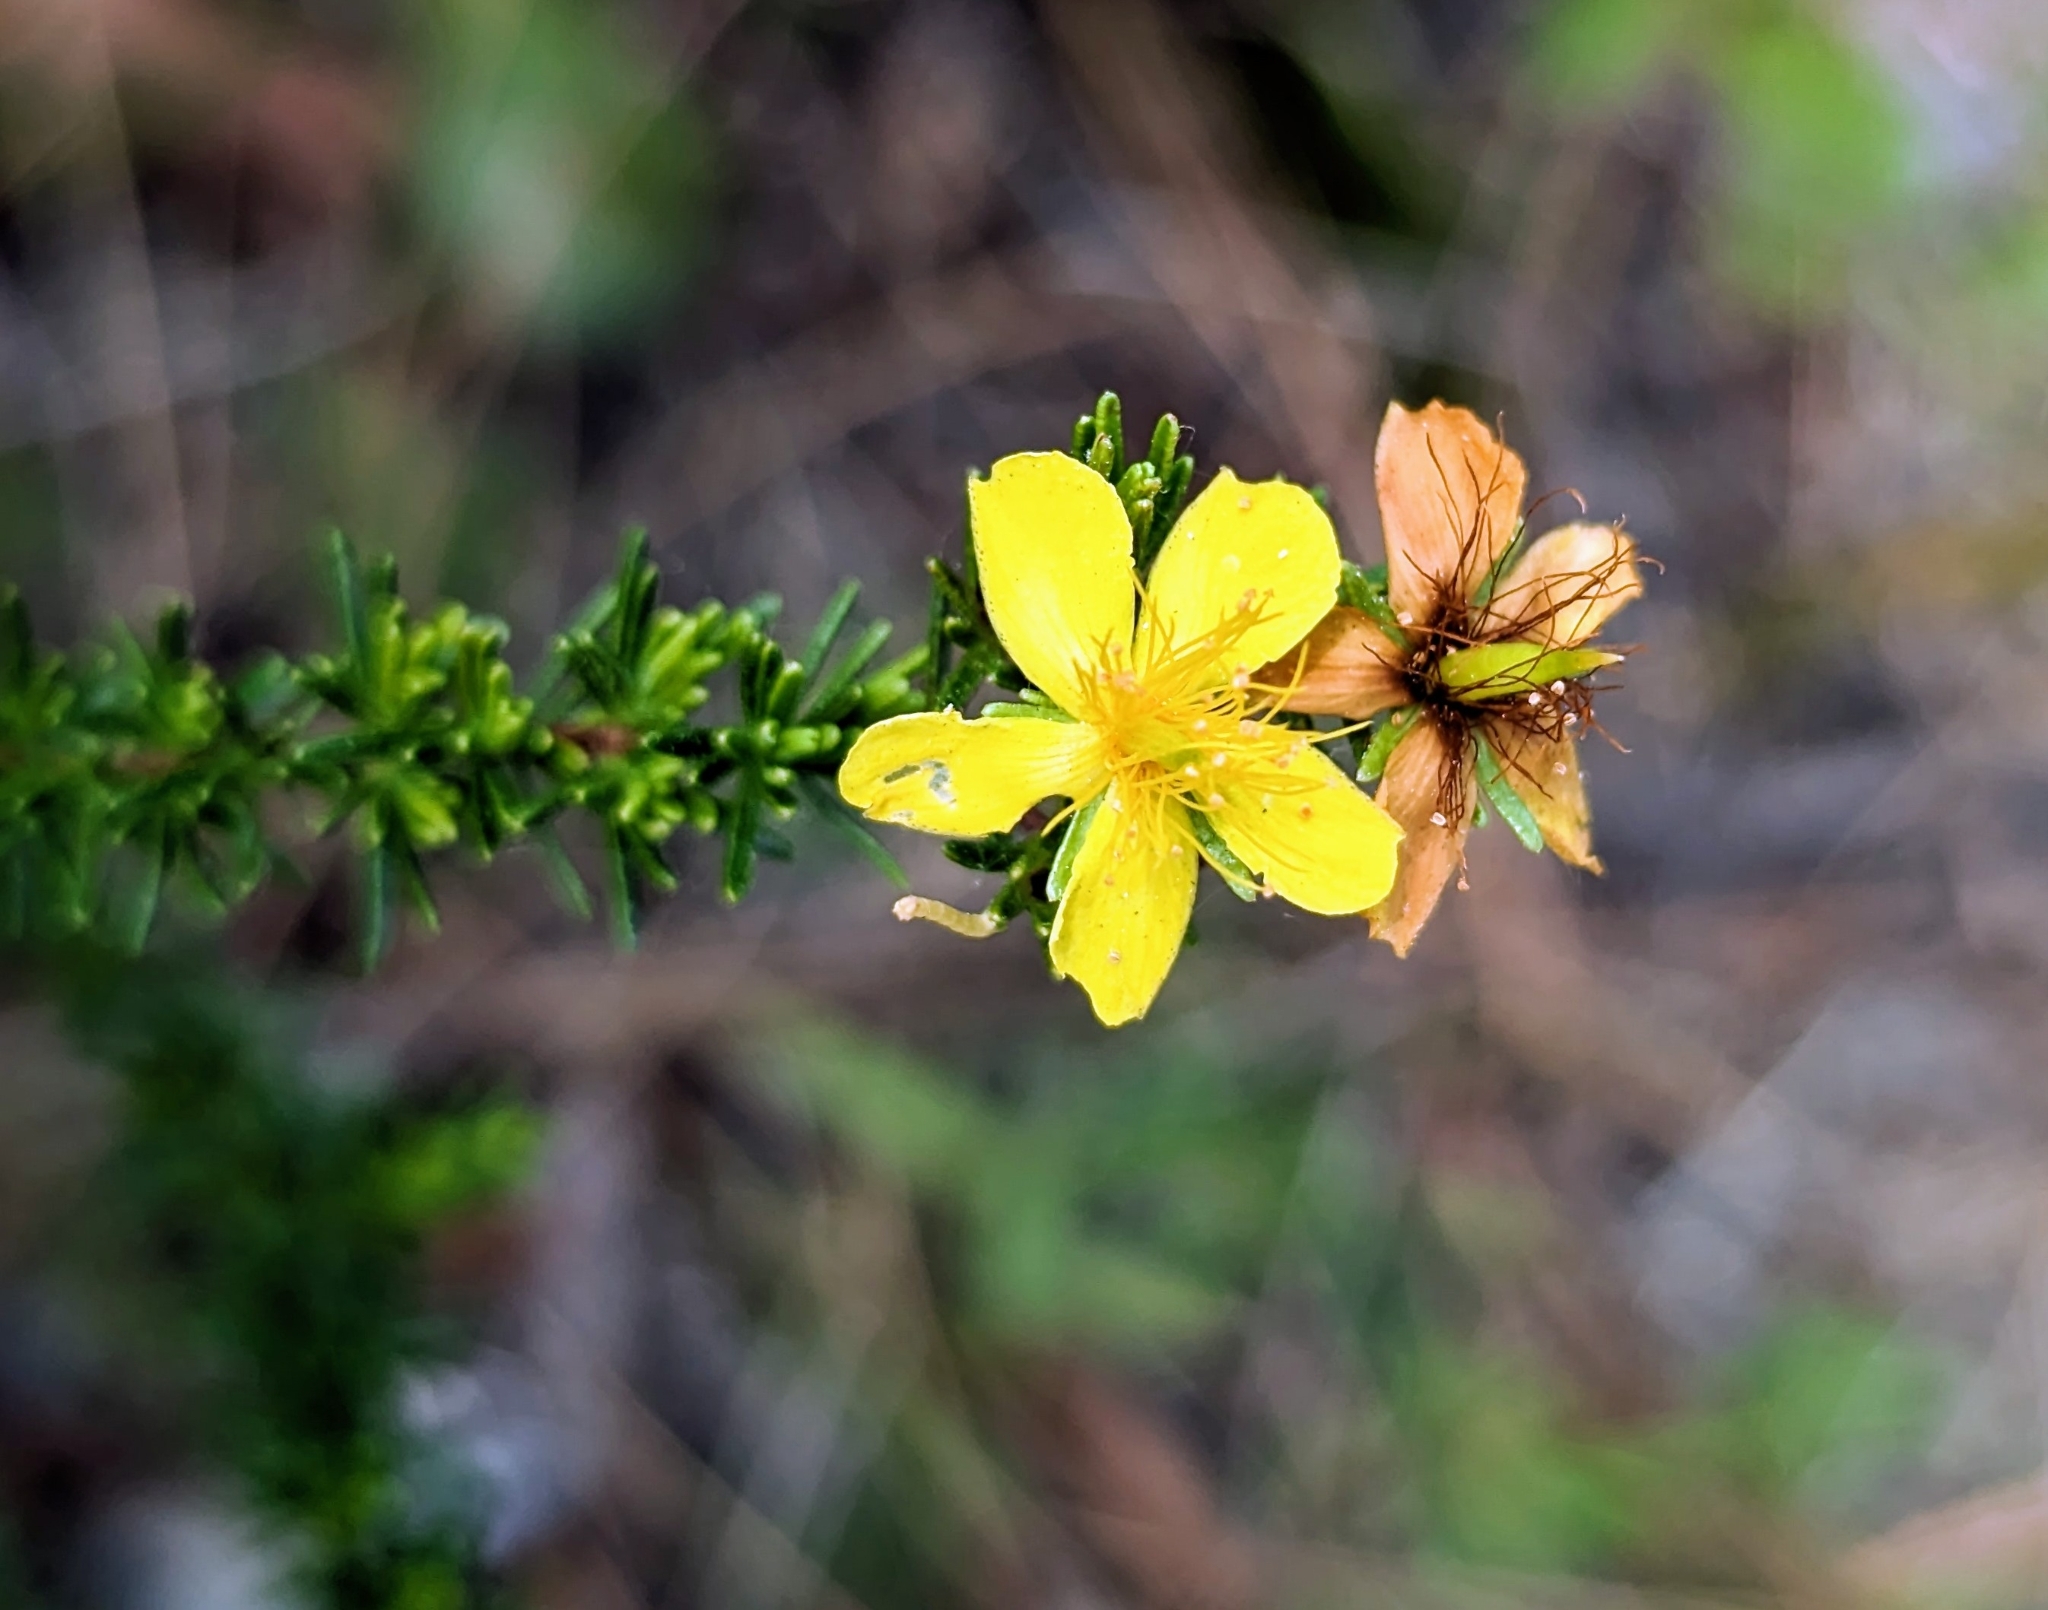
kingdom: Plantae
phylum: Tracheophyta
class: Magnoliopsida
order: Malpighiales
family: Hypericaceae
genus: Hypericum
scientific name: Hypericum tenuifolium
